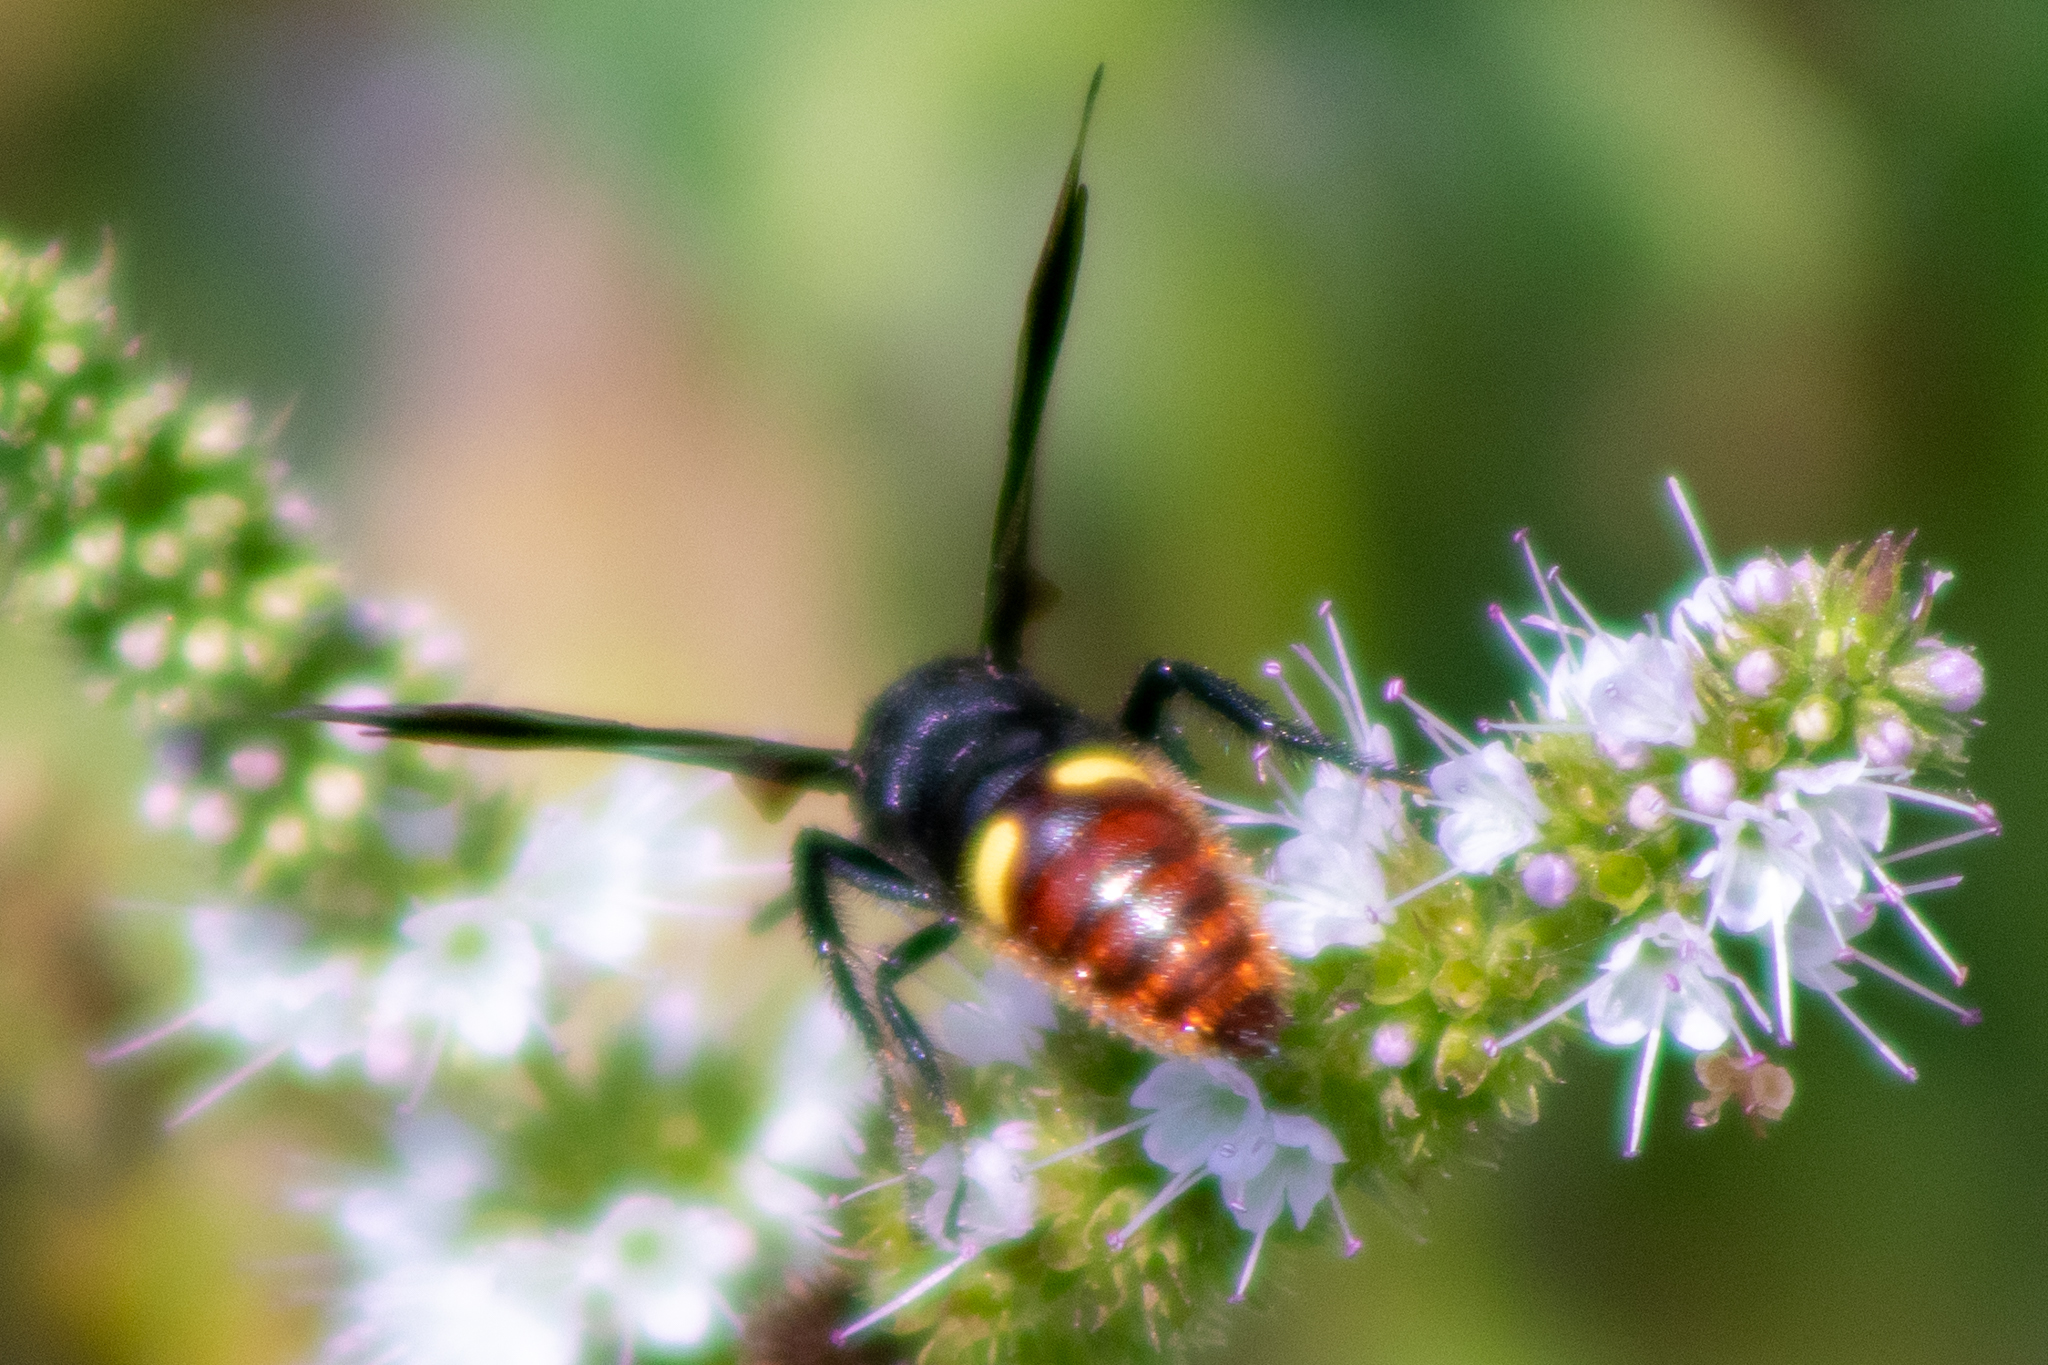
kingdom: Animalia
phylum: Arthropoda
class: Insecta
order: Hymenoptera
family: Scoliidae
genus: Scolia
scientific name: Scolia dubia
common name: Blue-winged scoliid wasp
